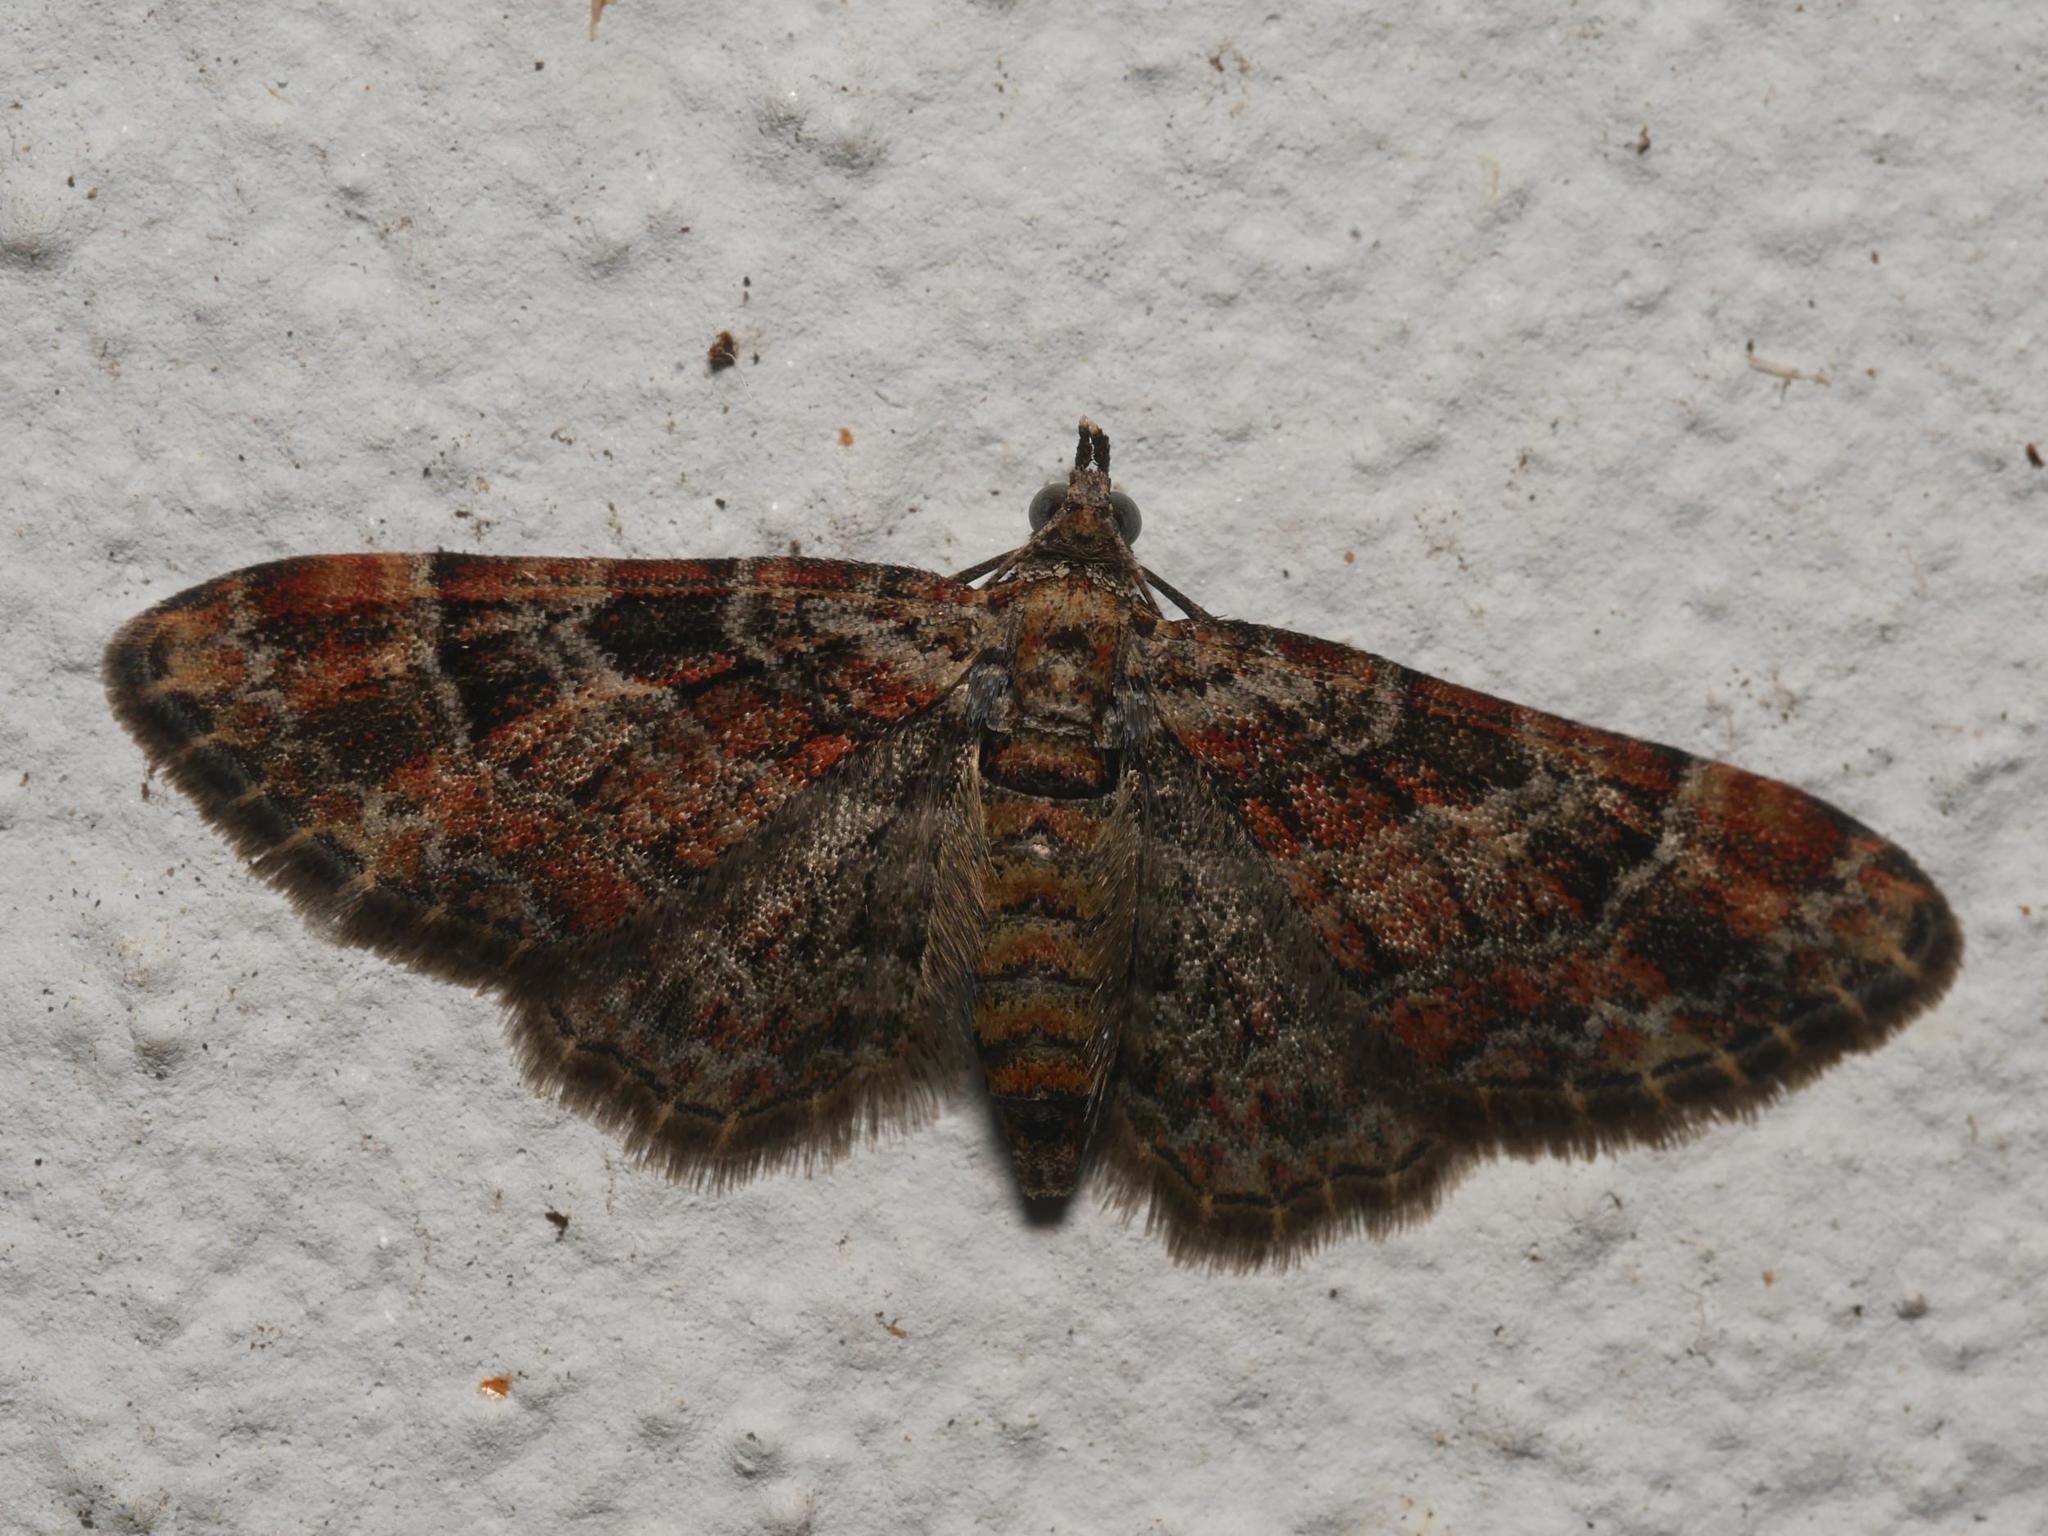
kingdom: Animalia
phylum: Arthropoda
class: Insecta
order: Lepidoptera
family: Geometridae
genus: Gymnoscelis
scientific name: Gymnoscelis rufifasciata
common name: Double-striped pug
